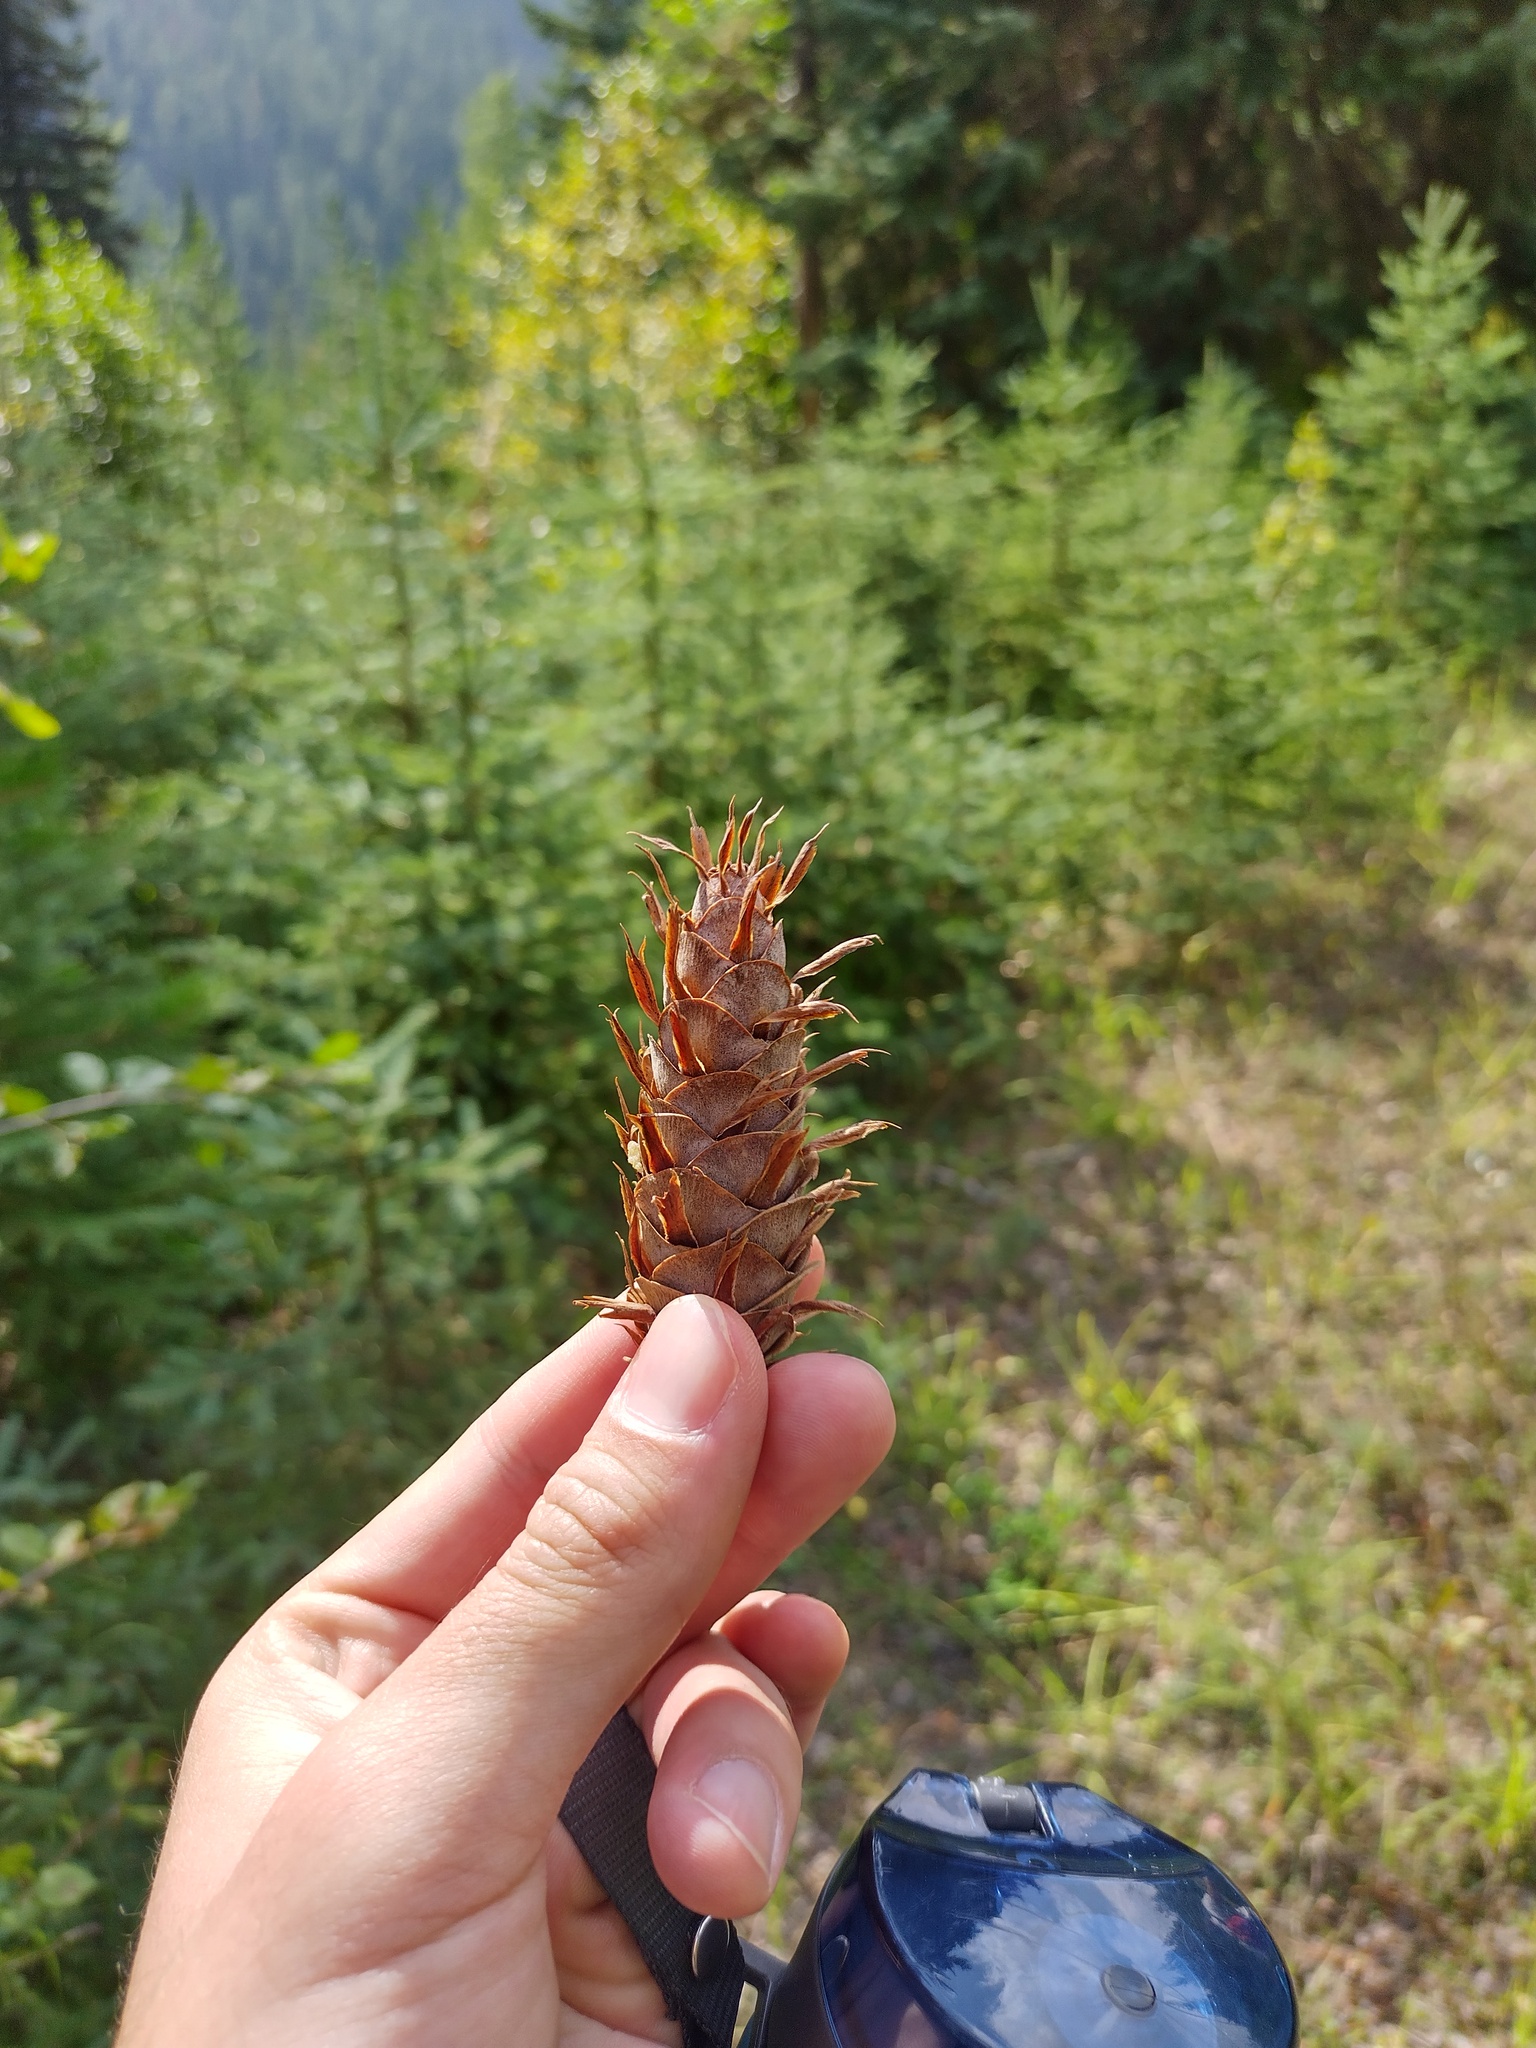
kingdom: Plantae
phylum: Tracheophyta
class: Pinopsida
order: Pinales
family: Pinaceae
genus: Pseudotsuga
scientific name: Pseudotsuga menziesii
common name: Douglas fir
